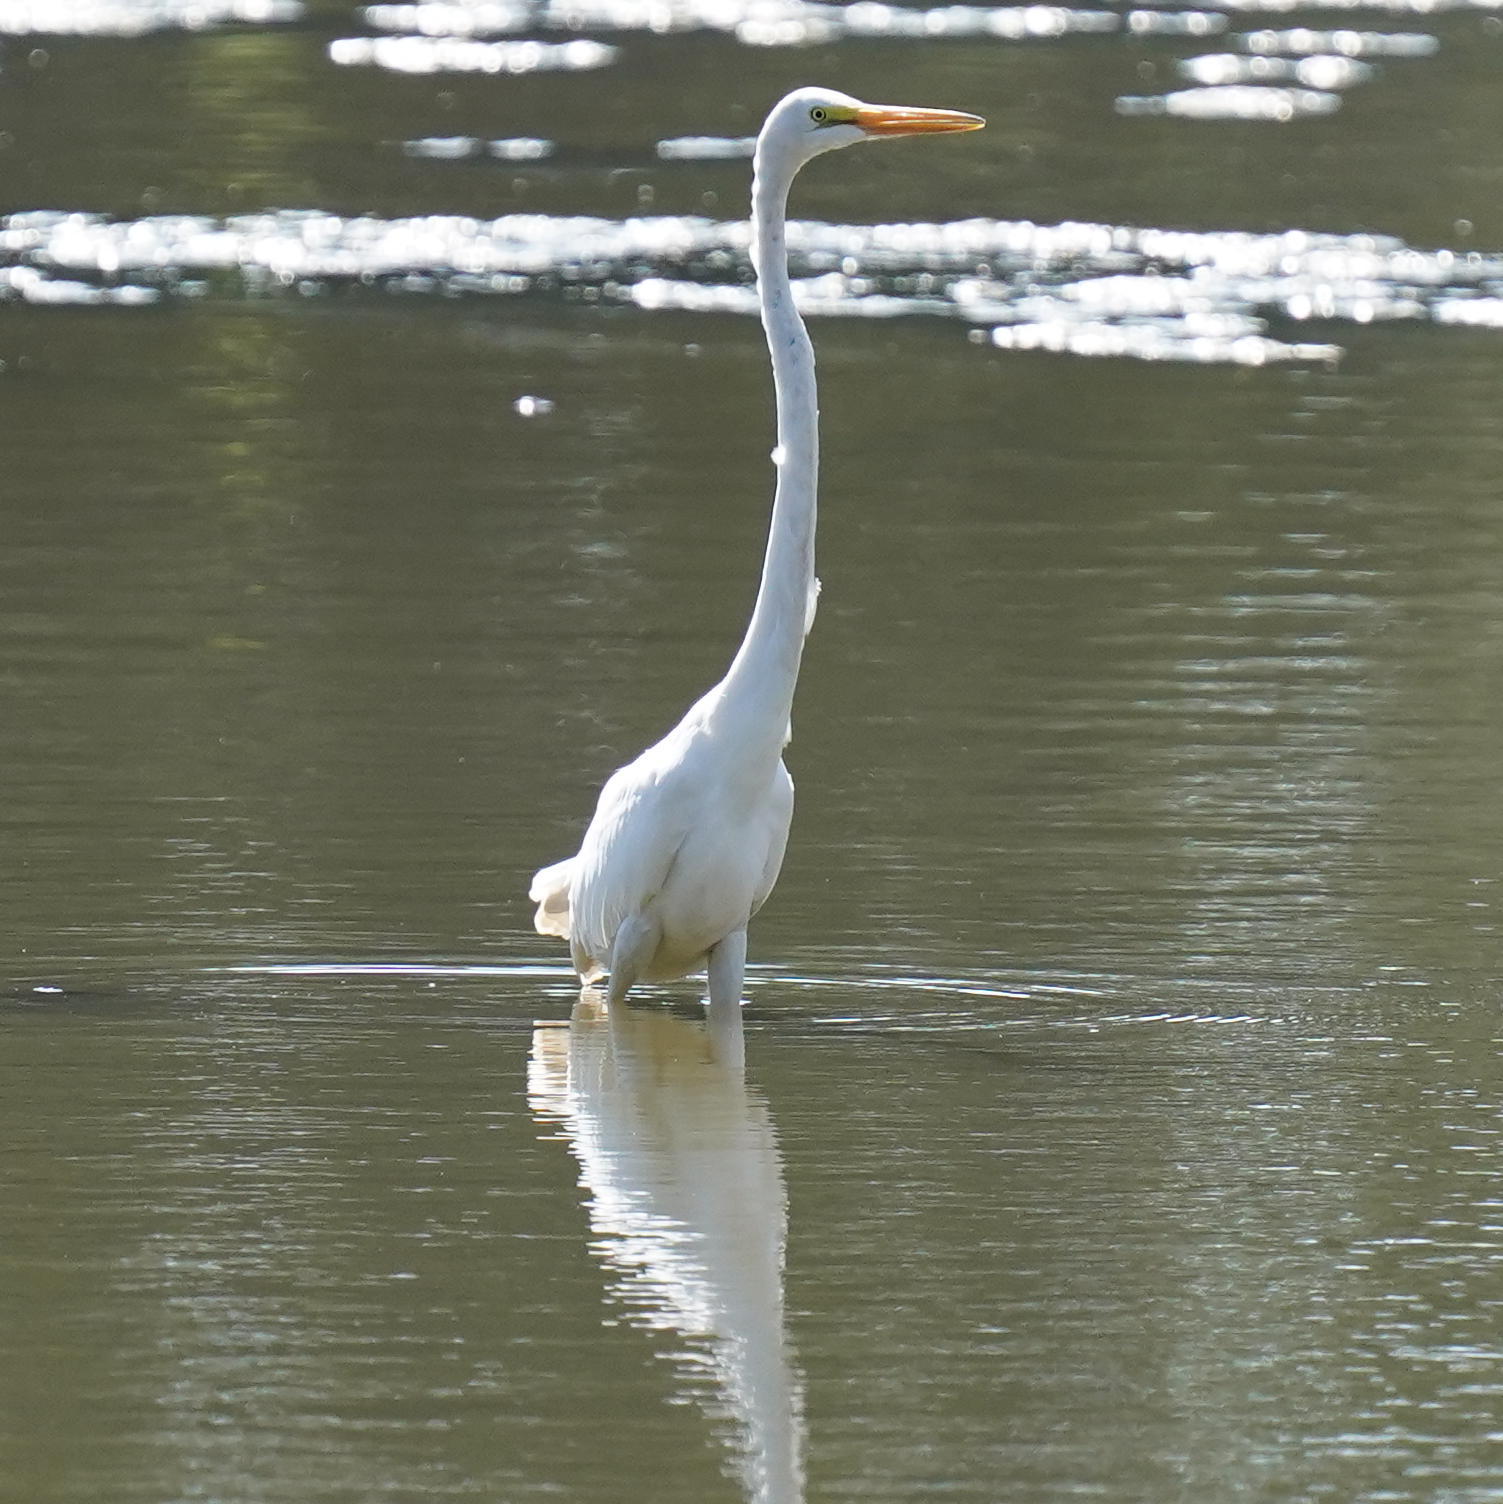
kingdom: Animalia
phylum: Chordata
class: Aves
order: Pelecaniformes
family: Ardeidae
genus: Ardea
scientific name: Ardea alba
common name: Great egret
